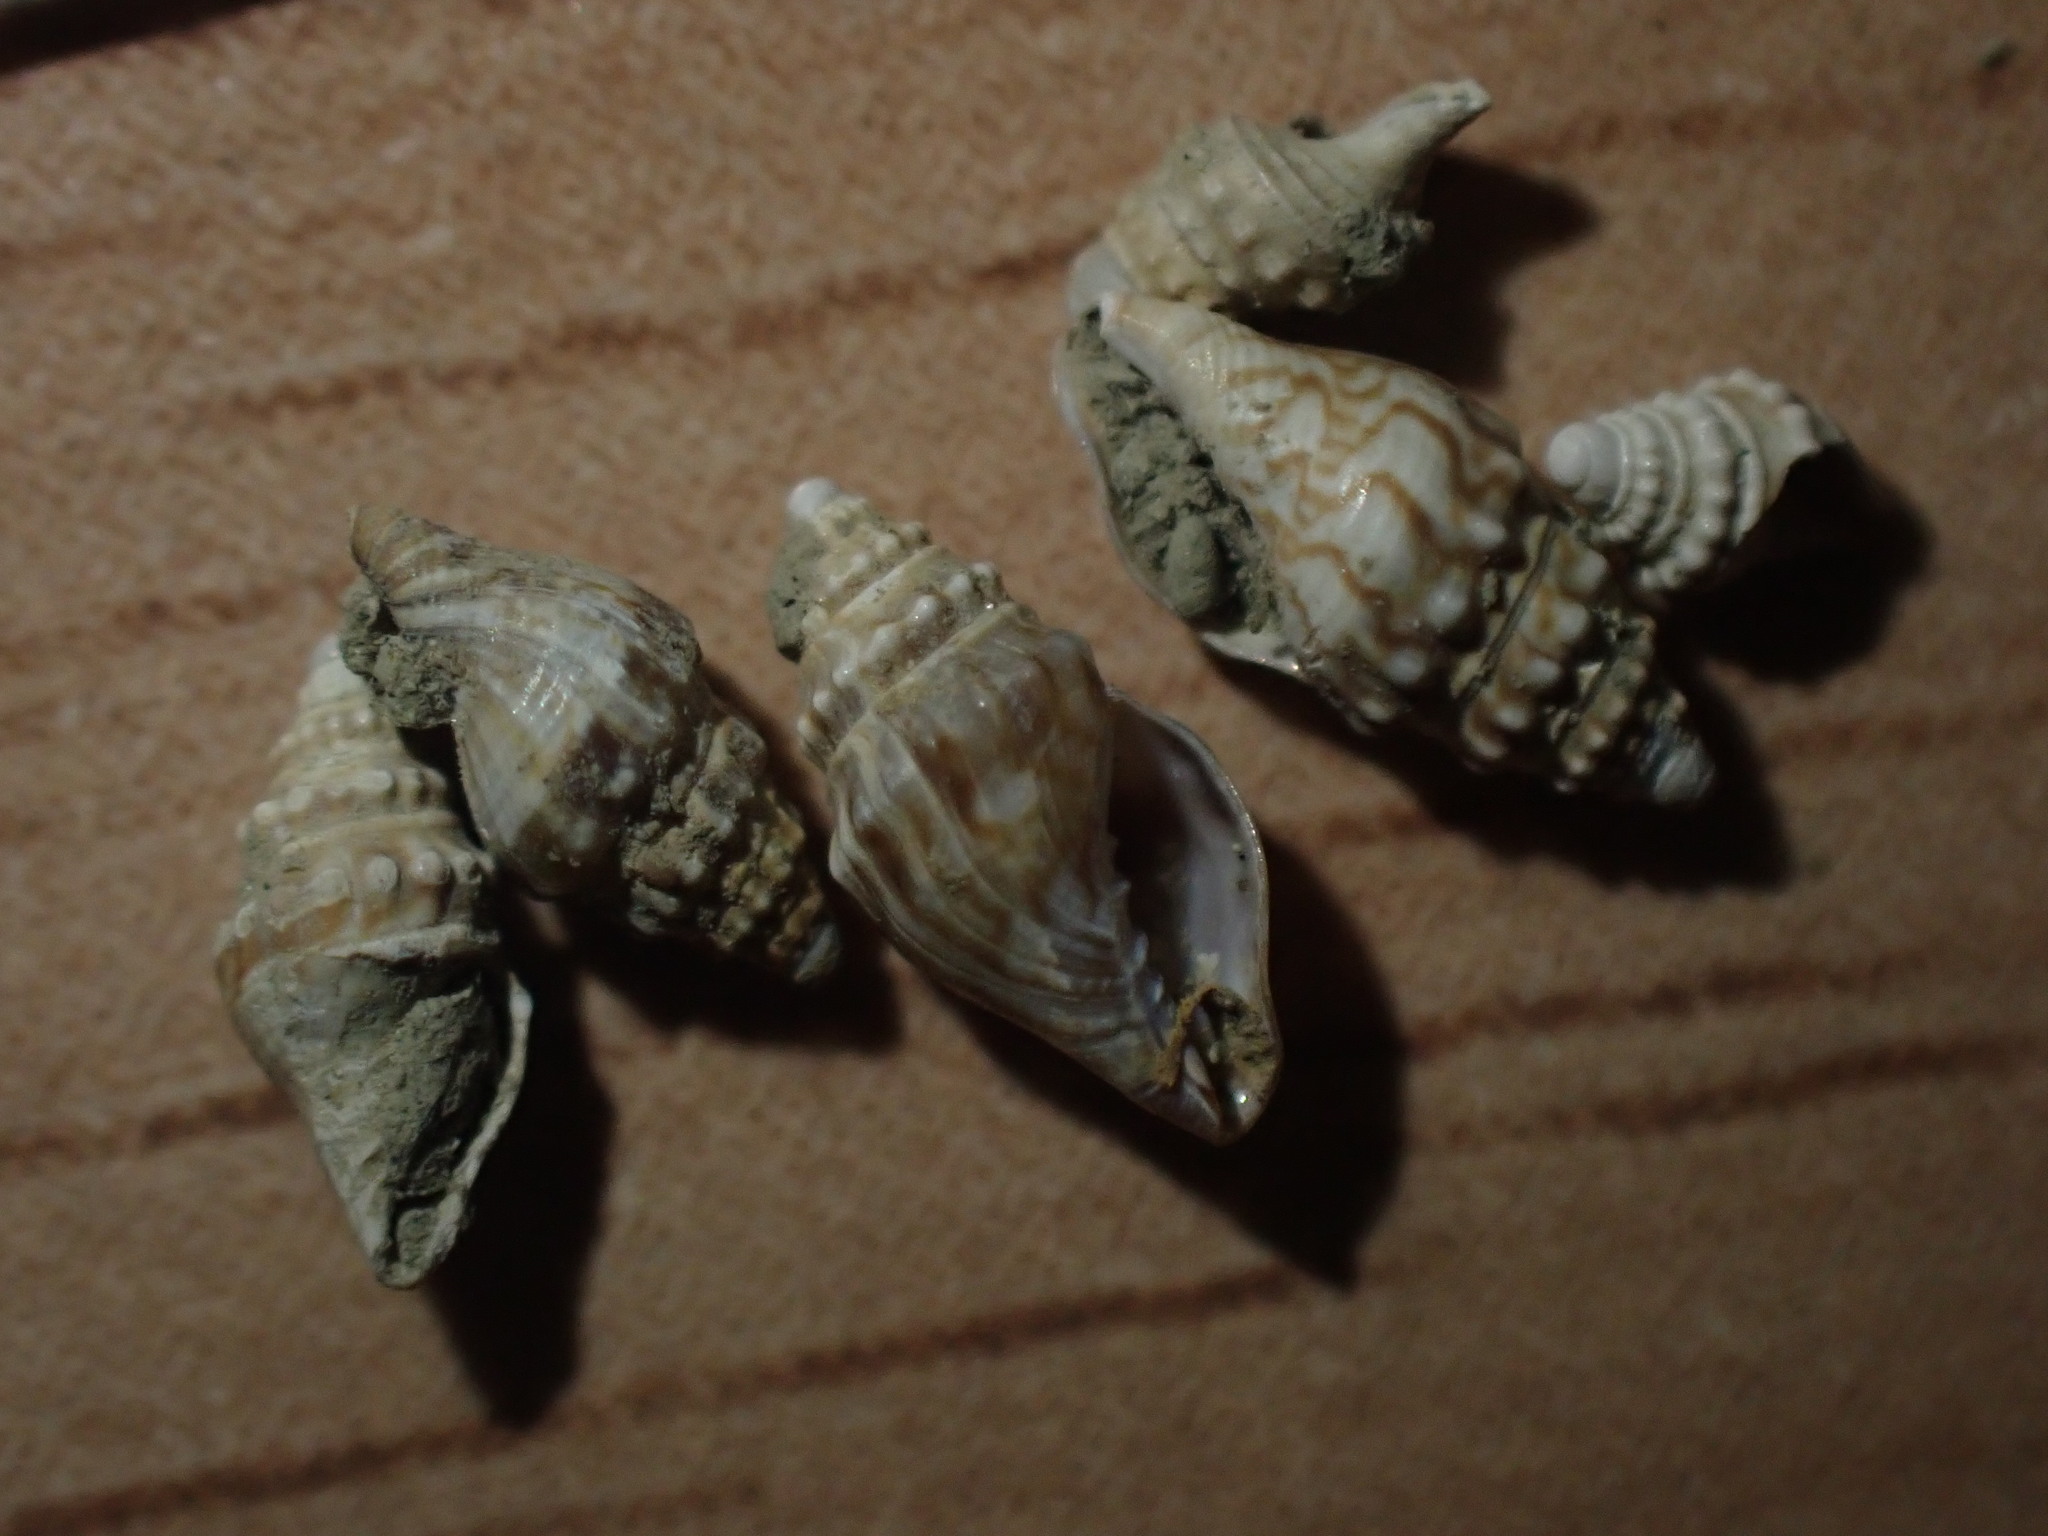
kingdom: Animalia
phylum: Mollusca
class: Gastropoda
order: Neogastropoda
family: Volutomitridae
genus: Microvoluta
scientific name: Microvoluta marginata
